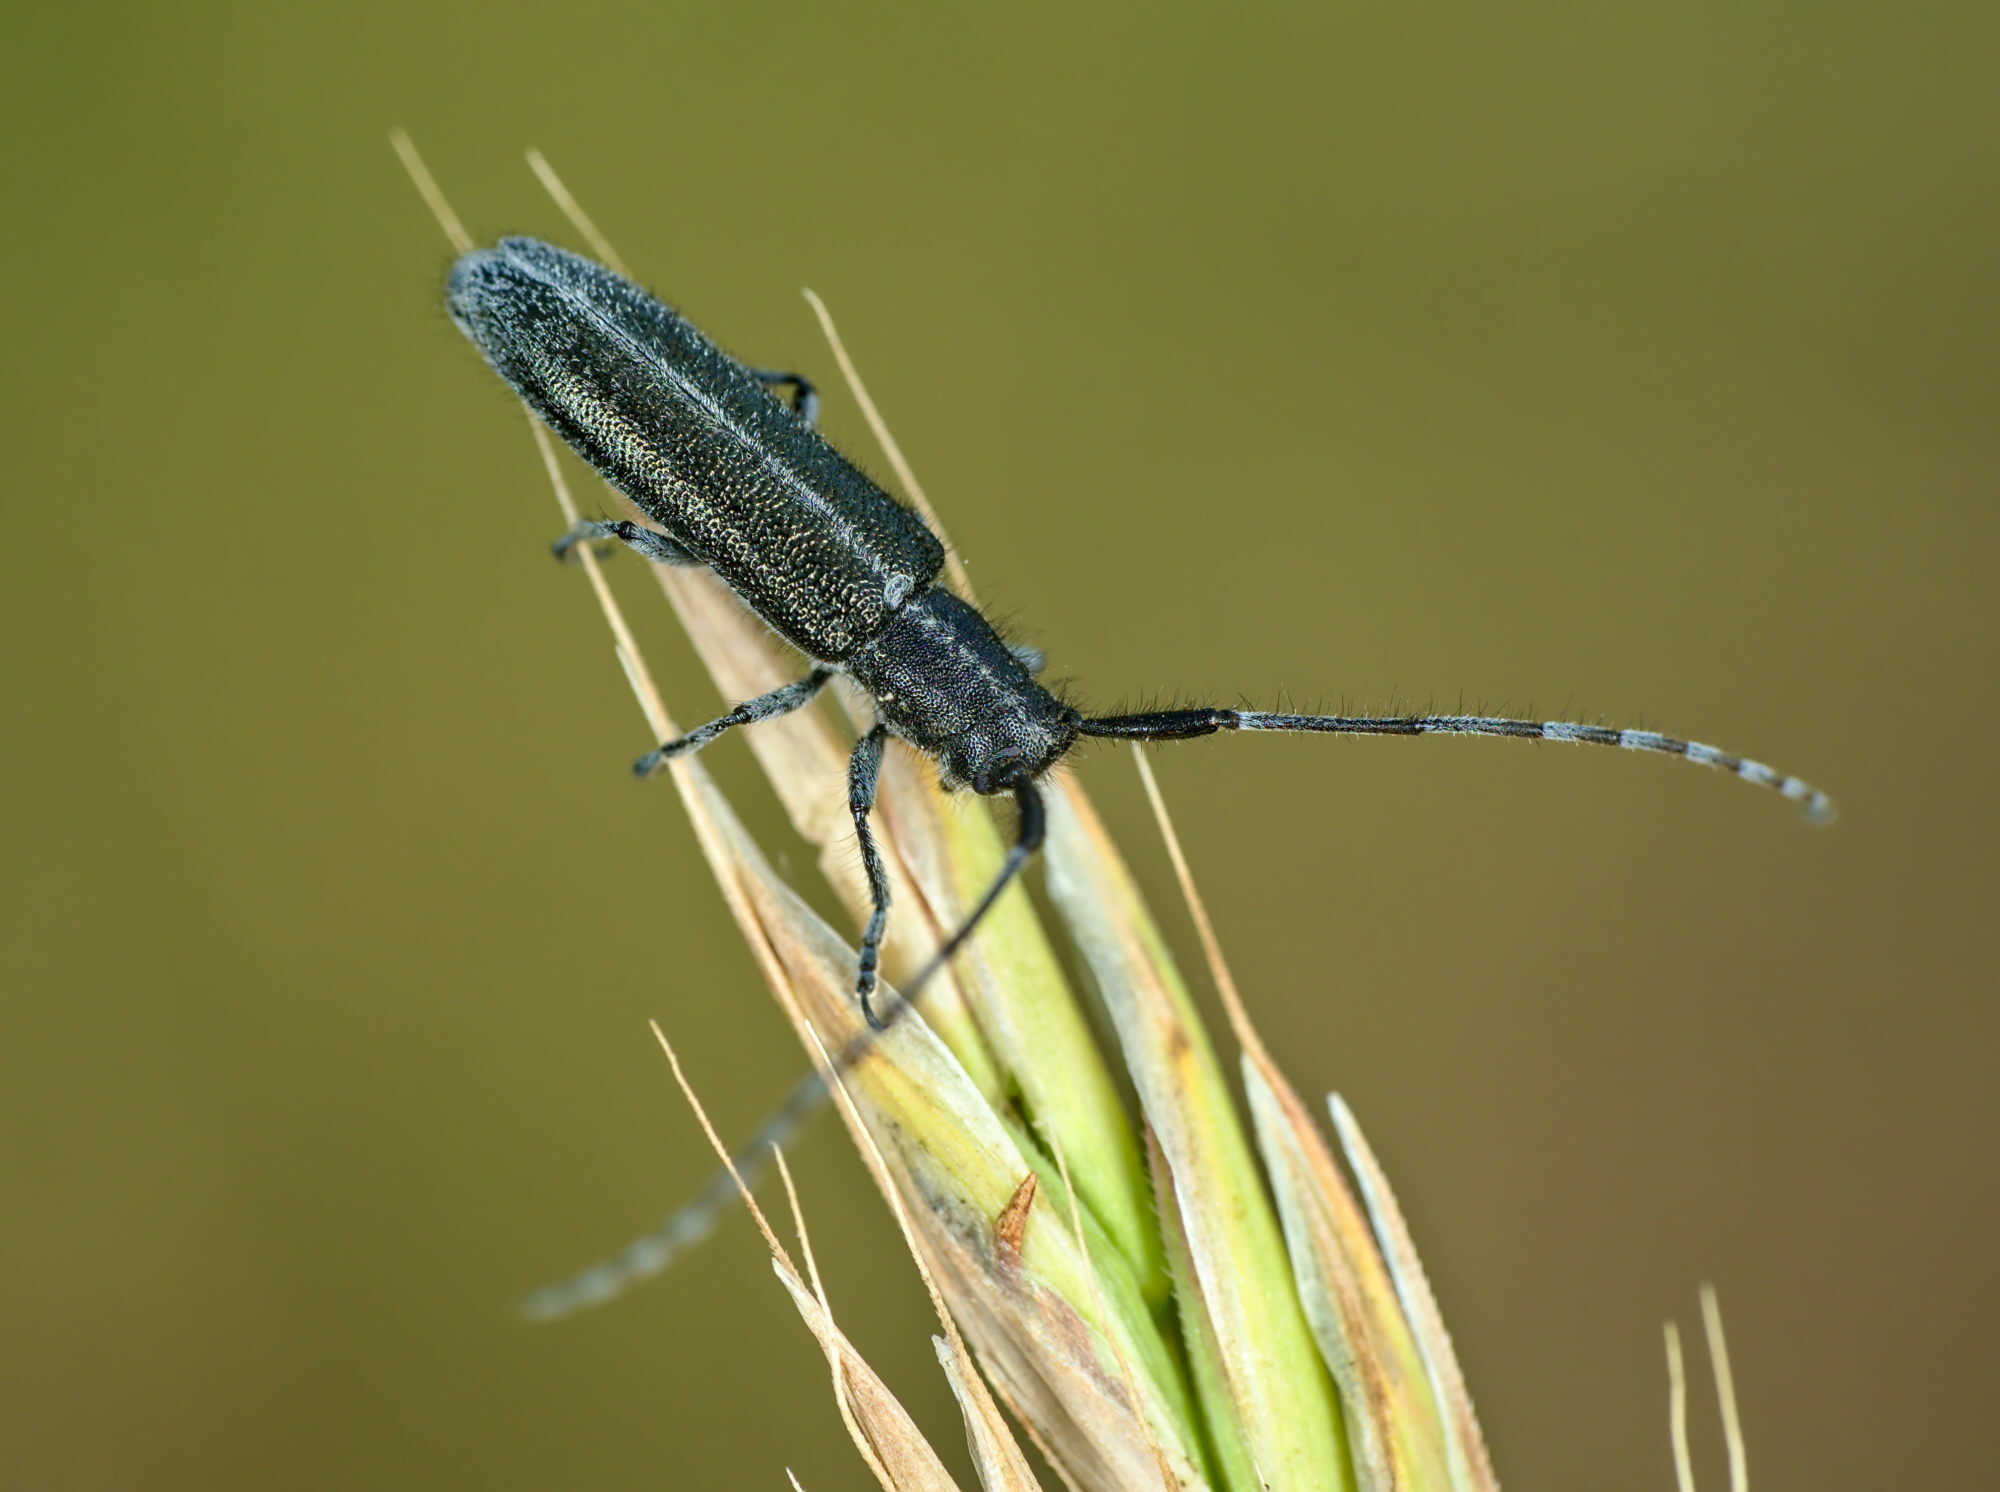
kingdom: Animalia
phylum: Arthropoda
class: Insecta
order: Coleoptera
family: Cerambycidae
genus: Agapanthia
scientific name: Agapanthia cardui
